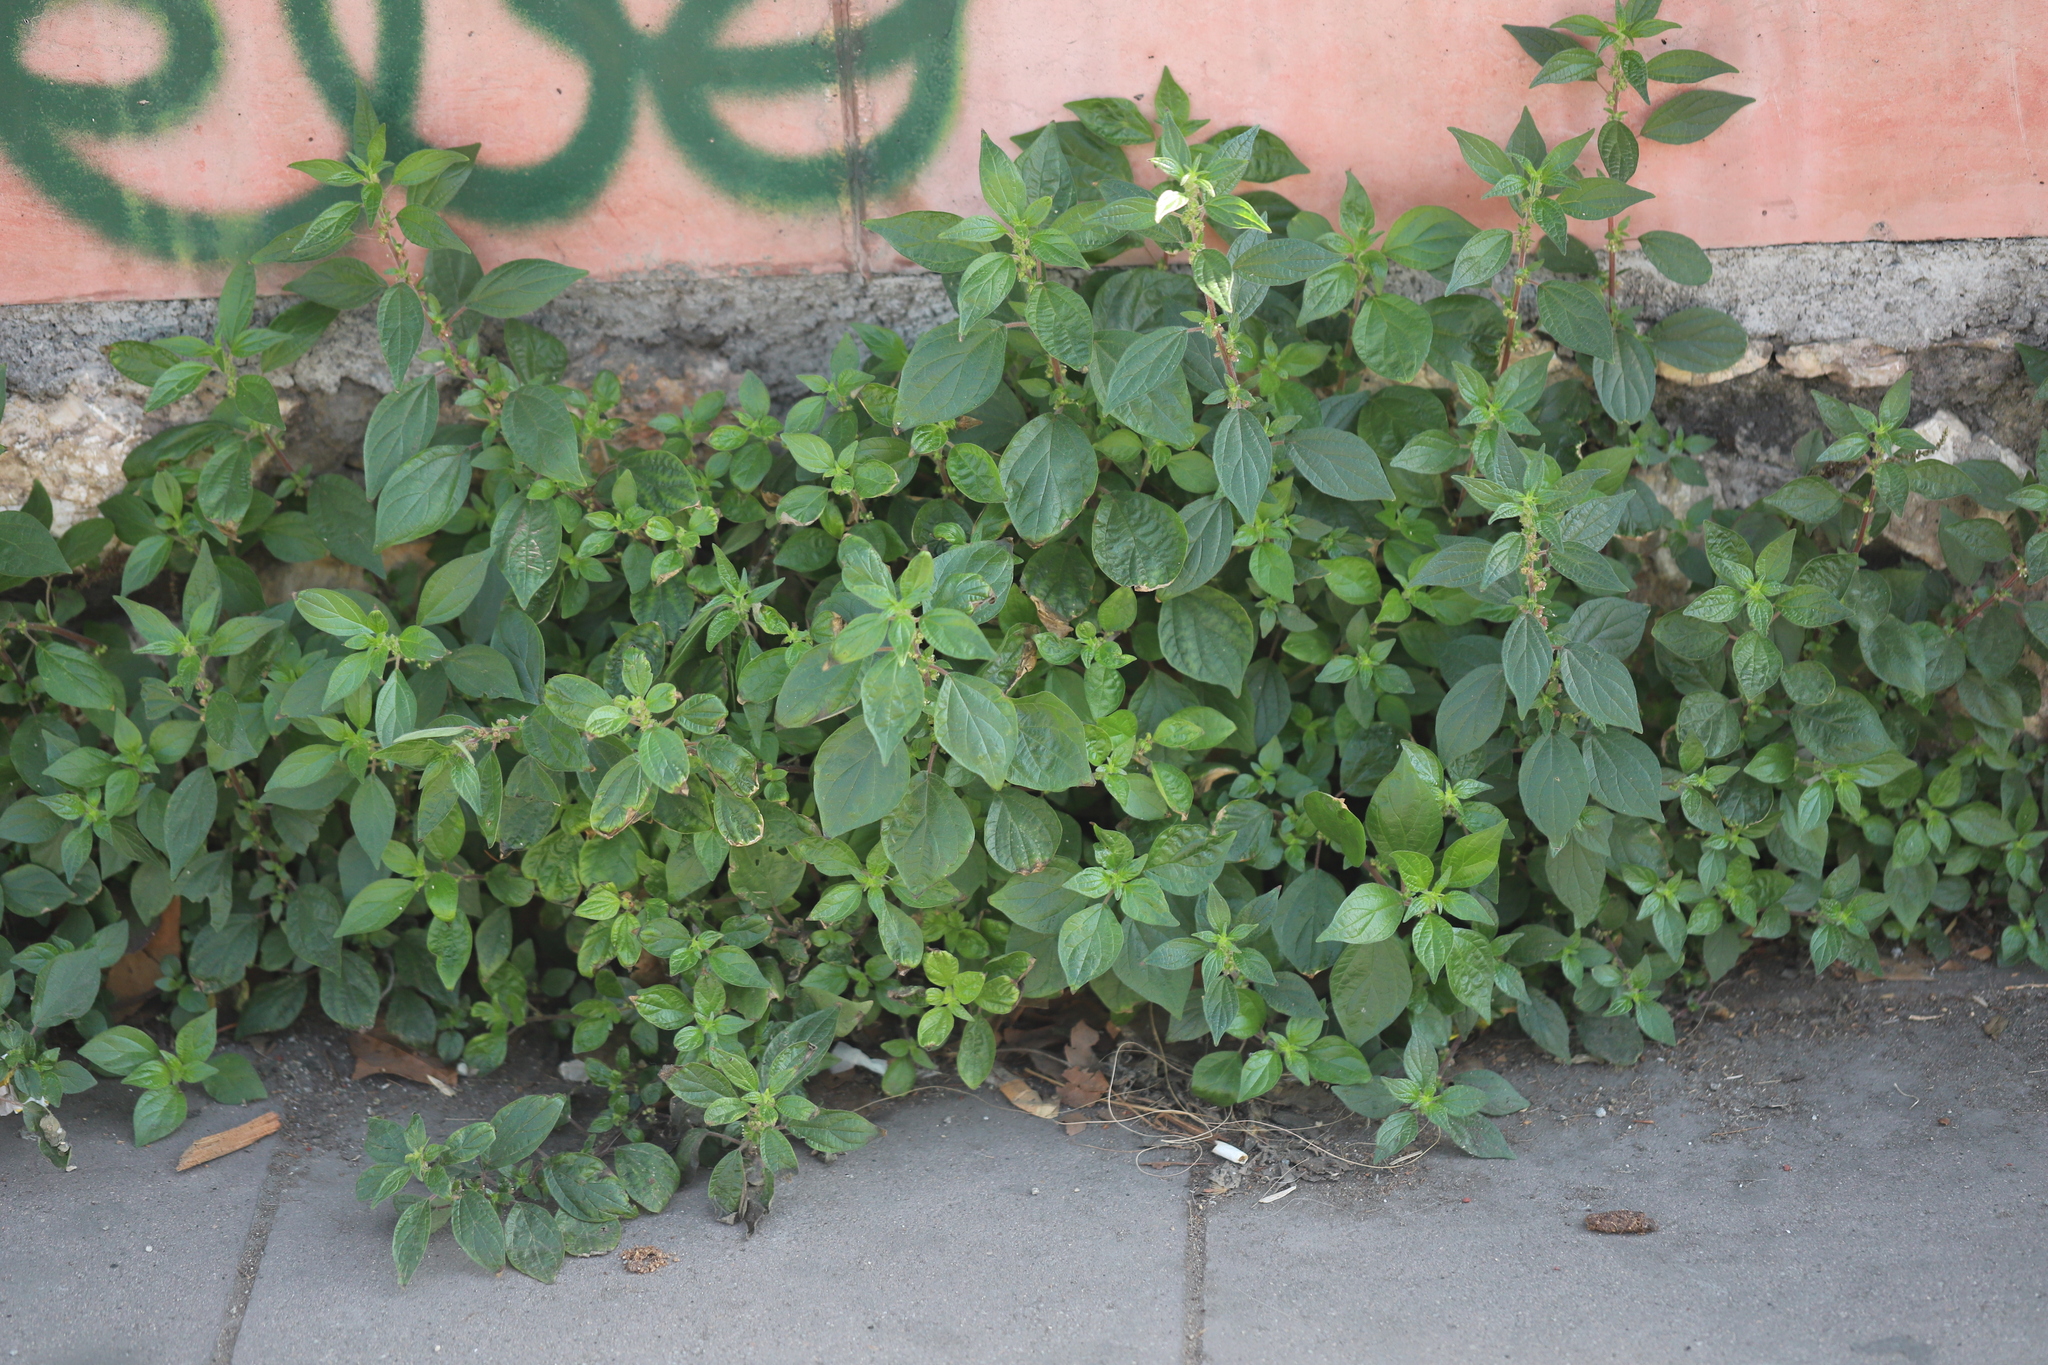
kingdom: Plantae
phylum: Tracheophyta
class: Magnoliopsida
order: Rosales
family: Urticaceae
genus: Parietaria
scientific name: Parietaria judaica
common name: Pellitory-of-the-wall
